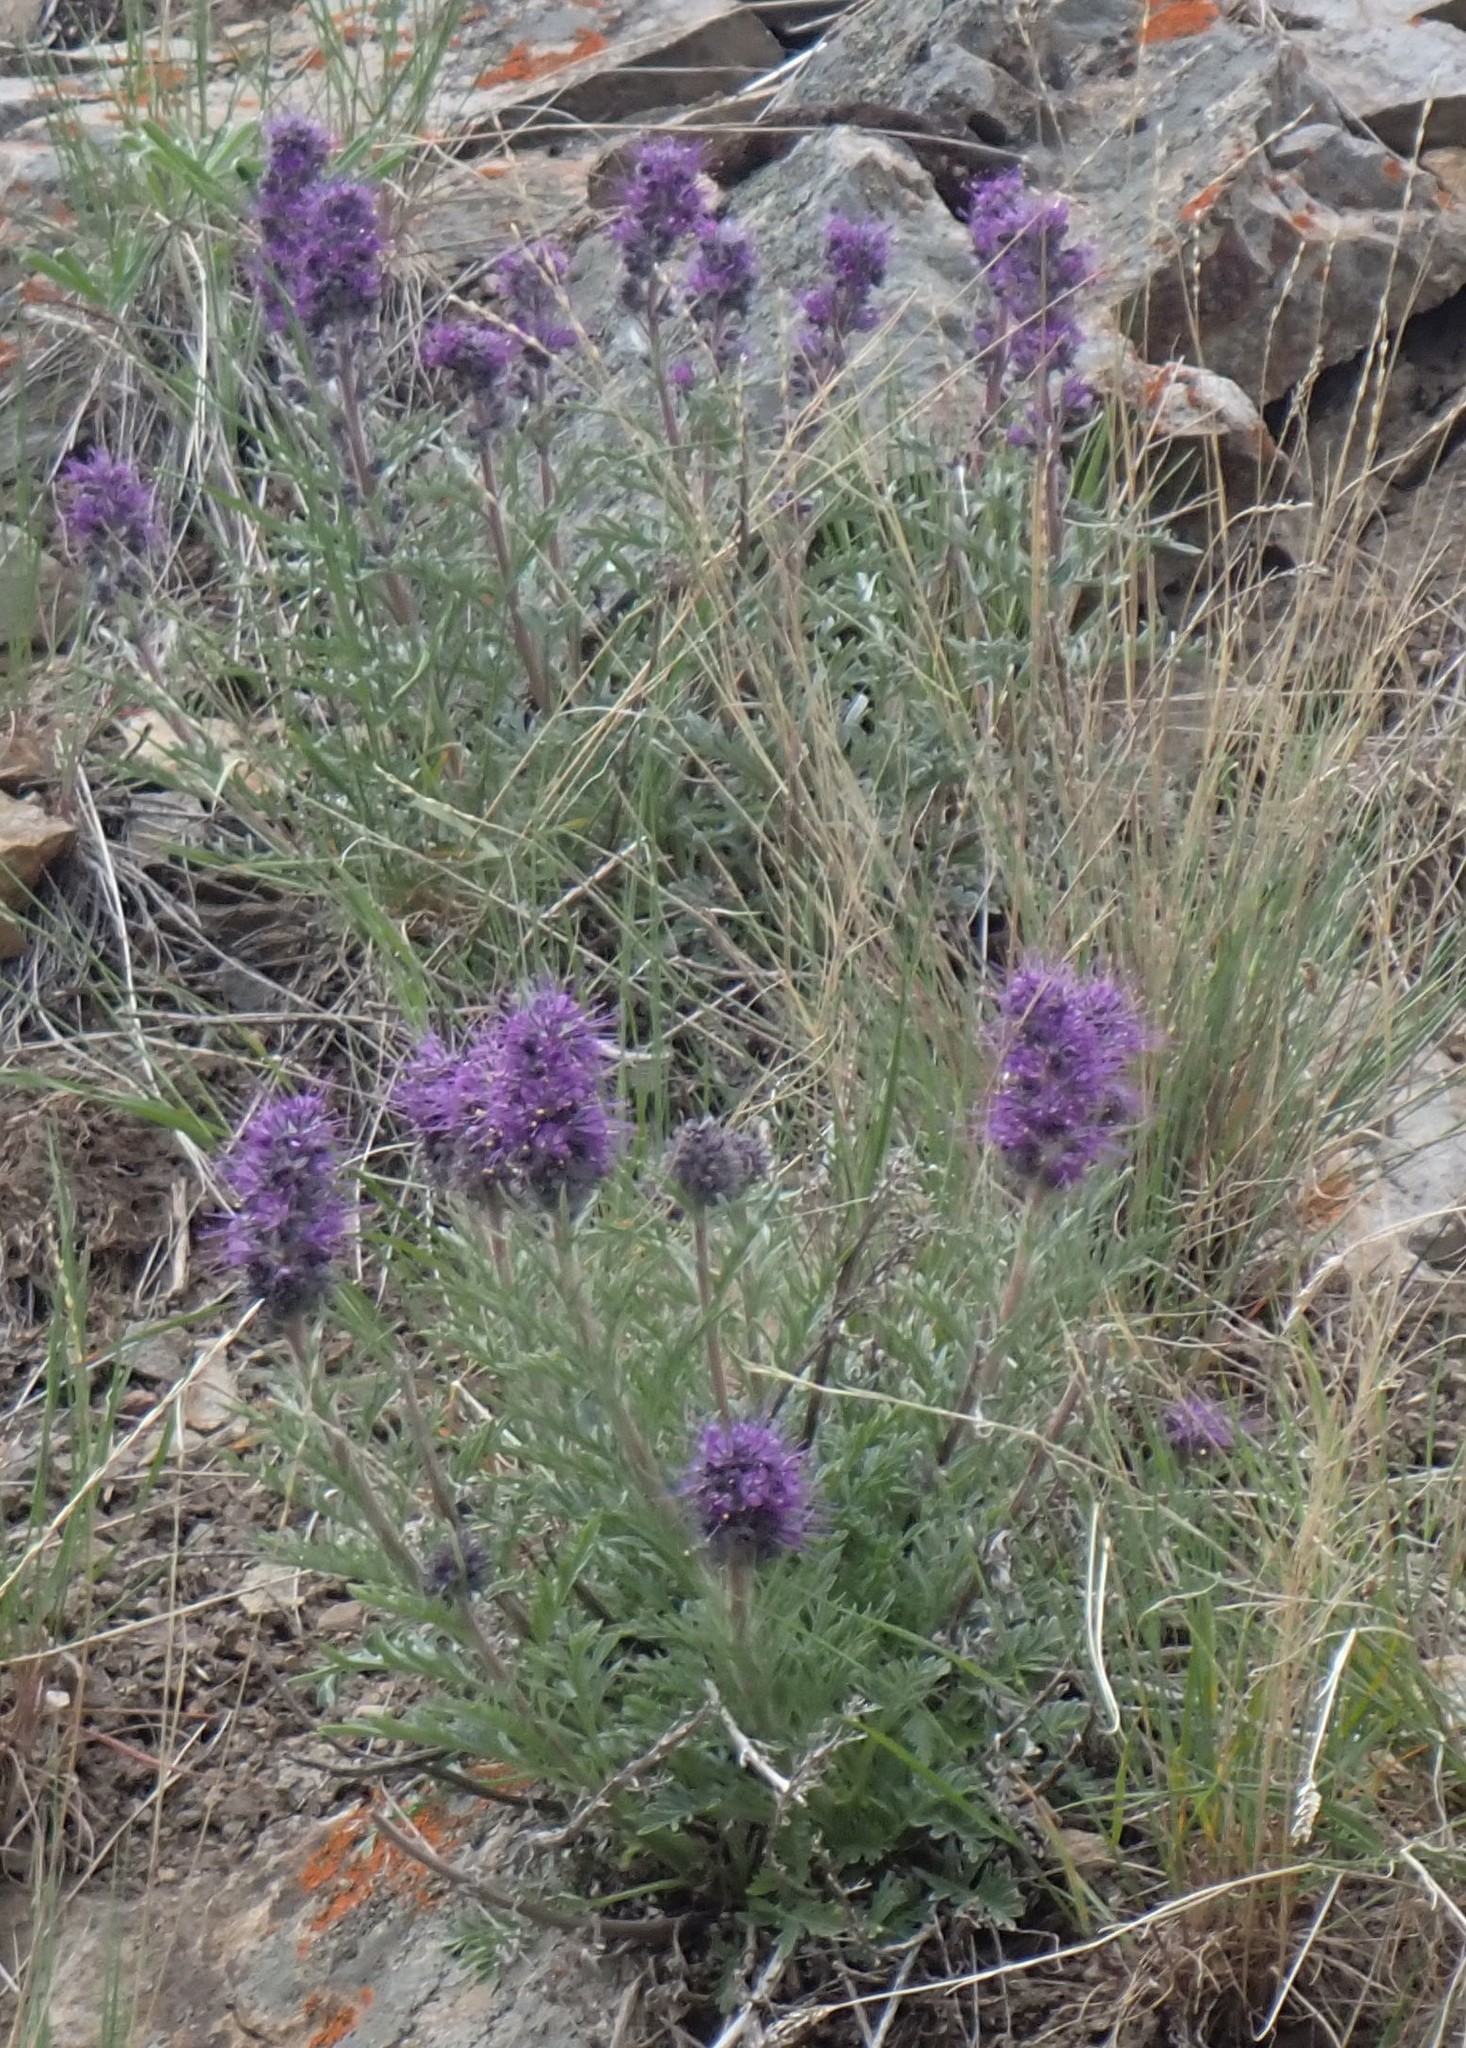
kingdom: Plantae
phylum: Tracheophyta
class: Magnoliopsida
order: Boraginales
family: Hydrophyllaceae
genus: Phacelia
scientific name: Phacelia sericea
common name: Silky phacelia
